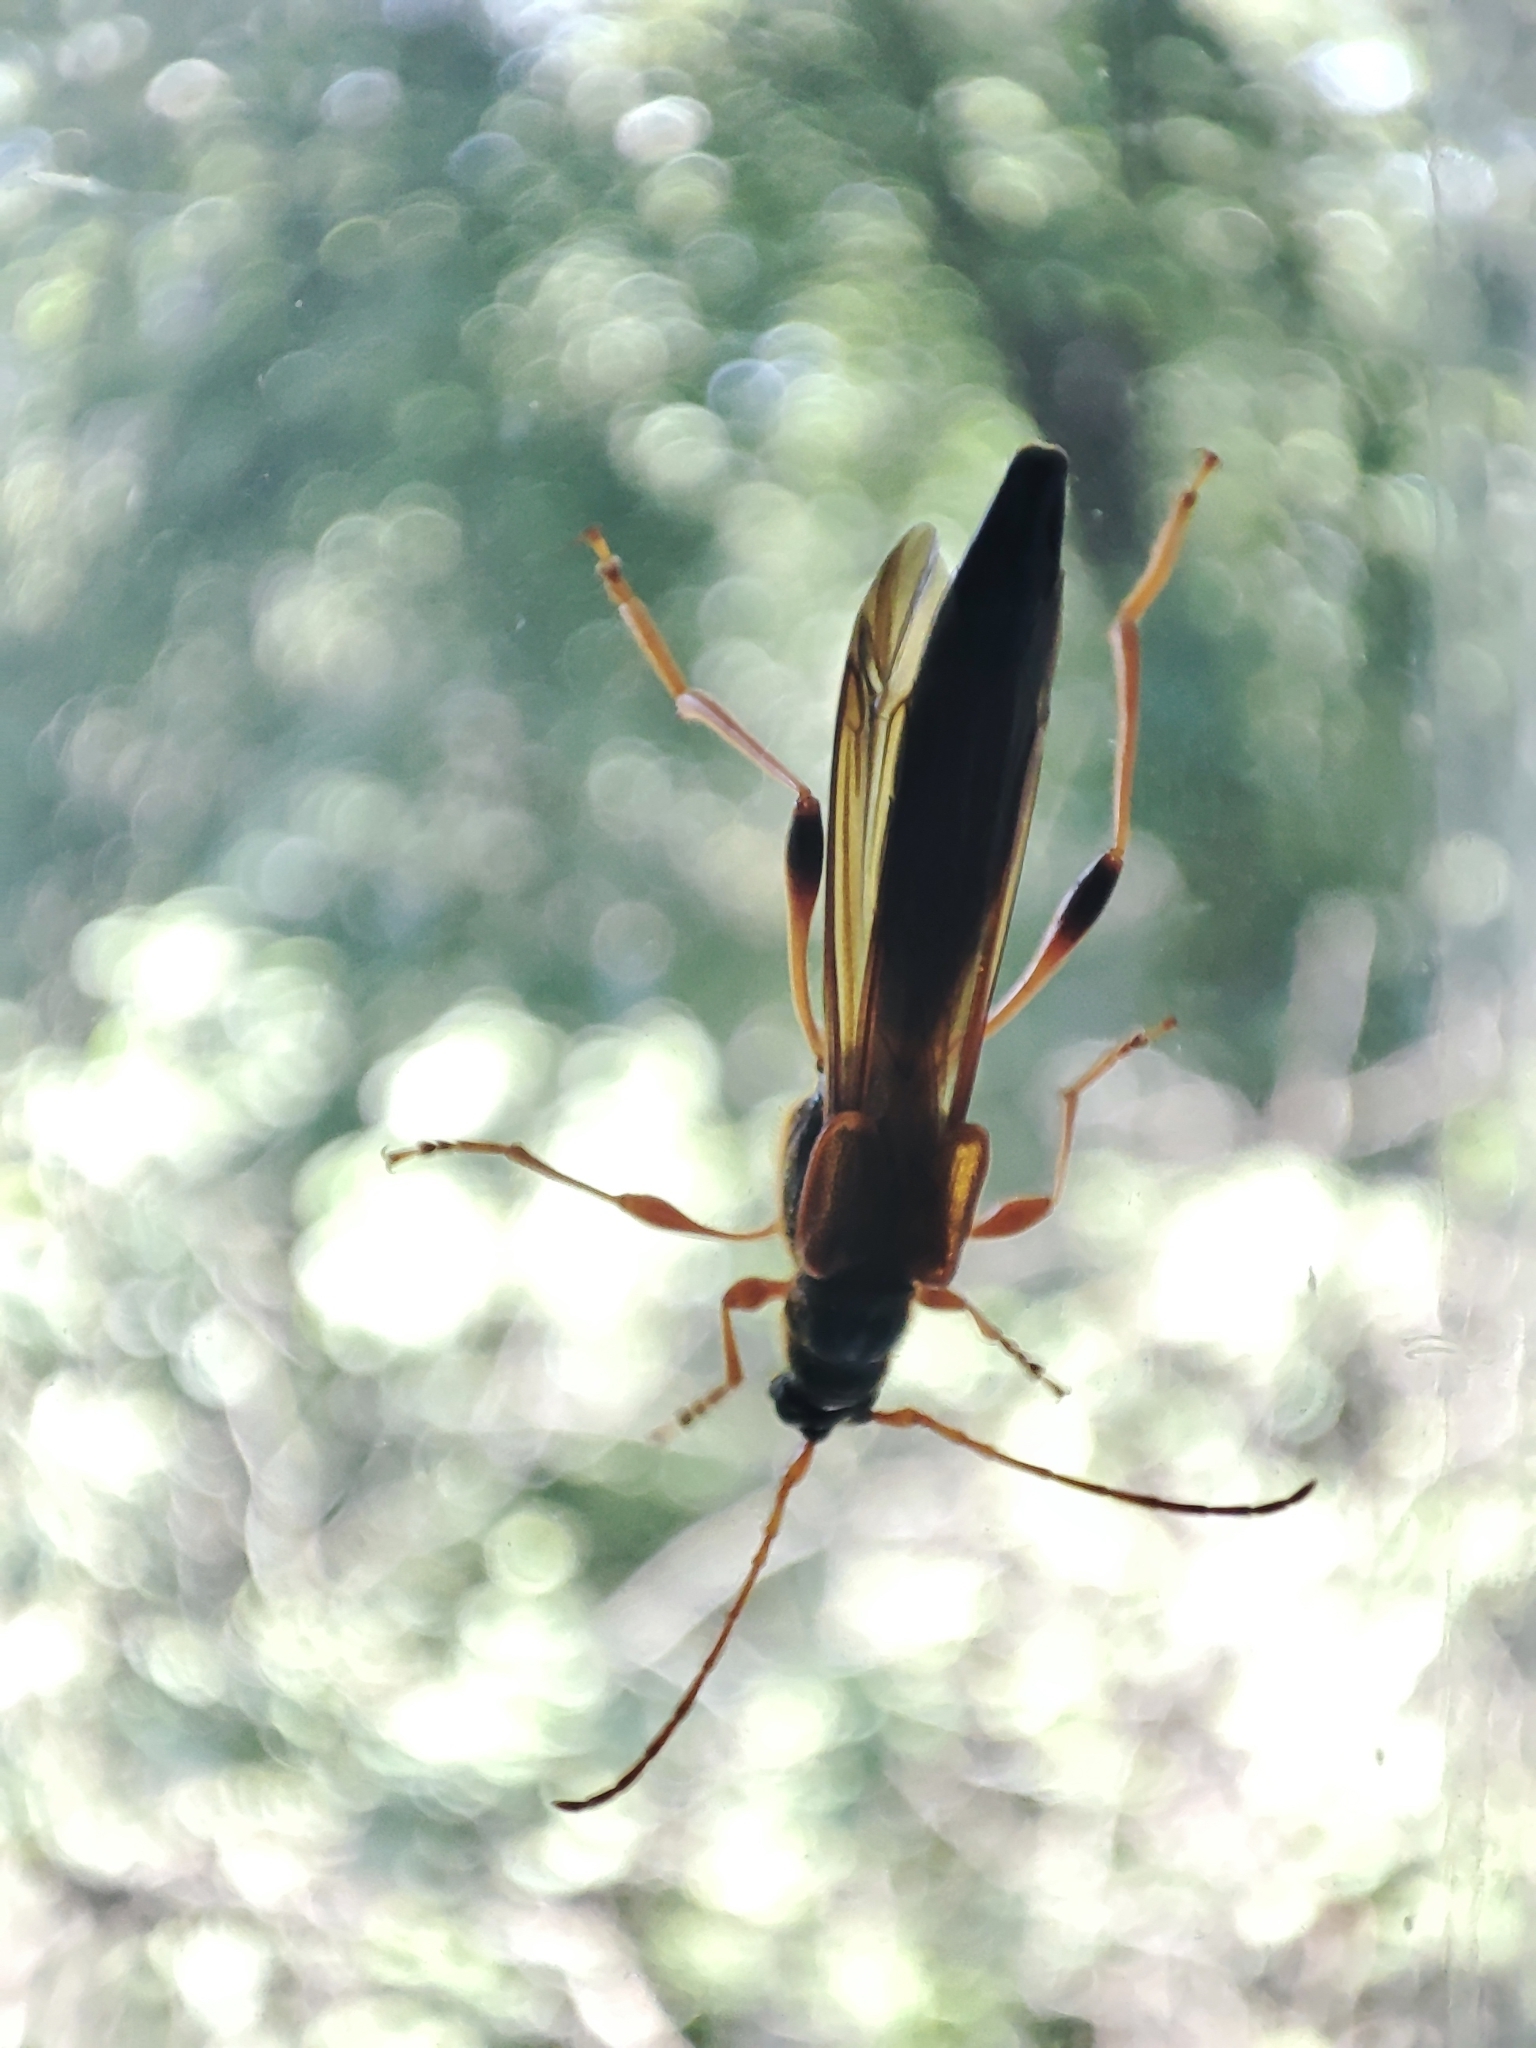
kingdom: Animalia
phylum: Arthropoda
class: Insecta
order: Coleoptera
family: Cerambycidae
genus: Necydalis
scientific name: Necydalis major
